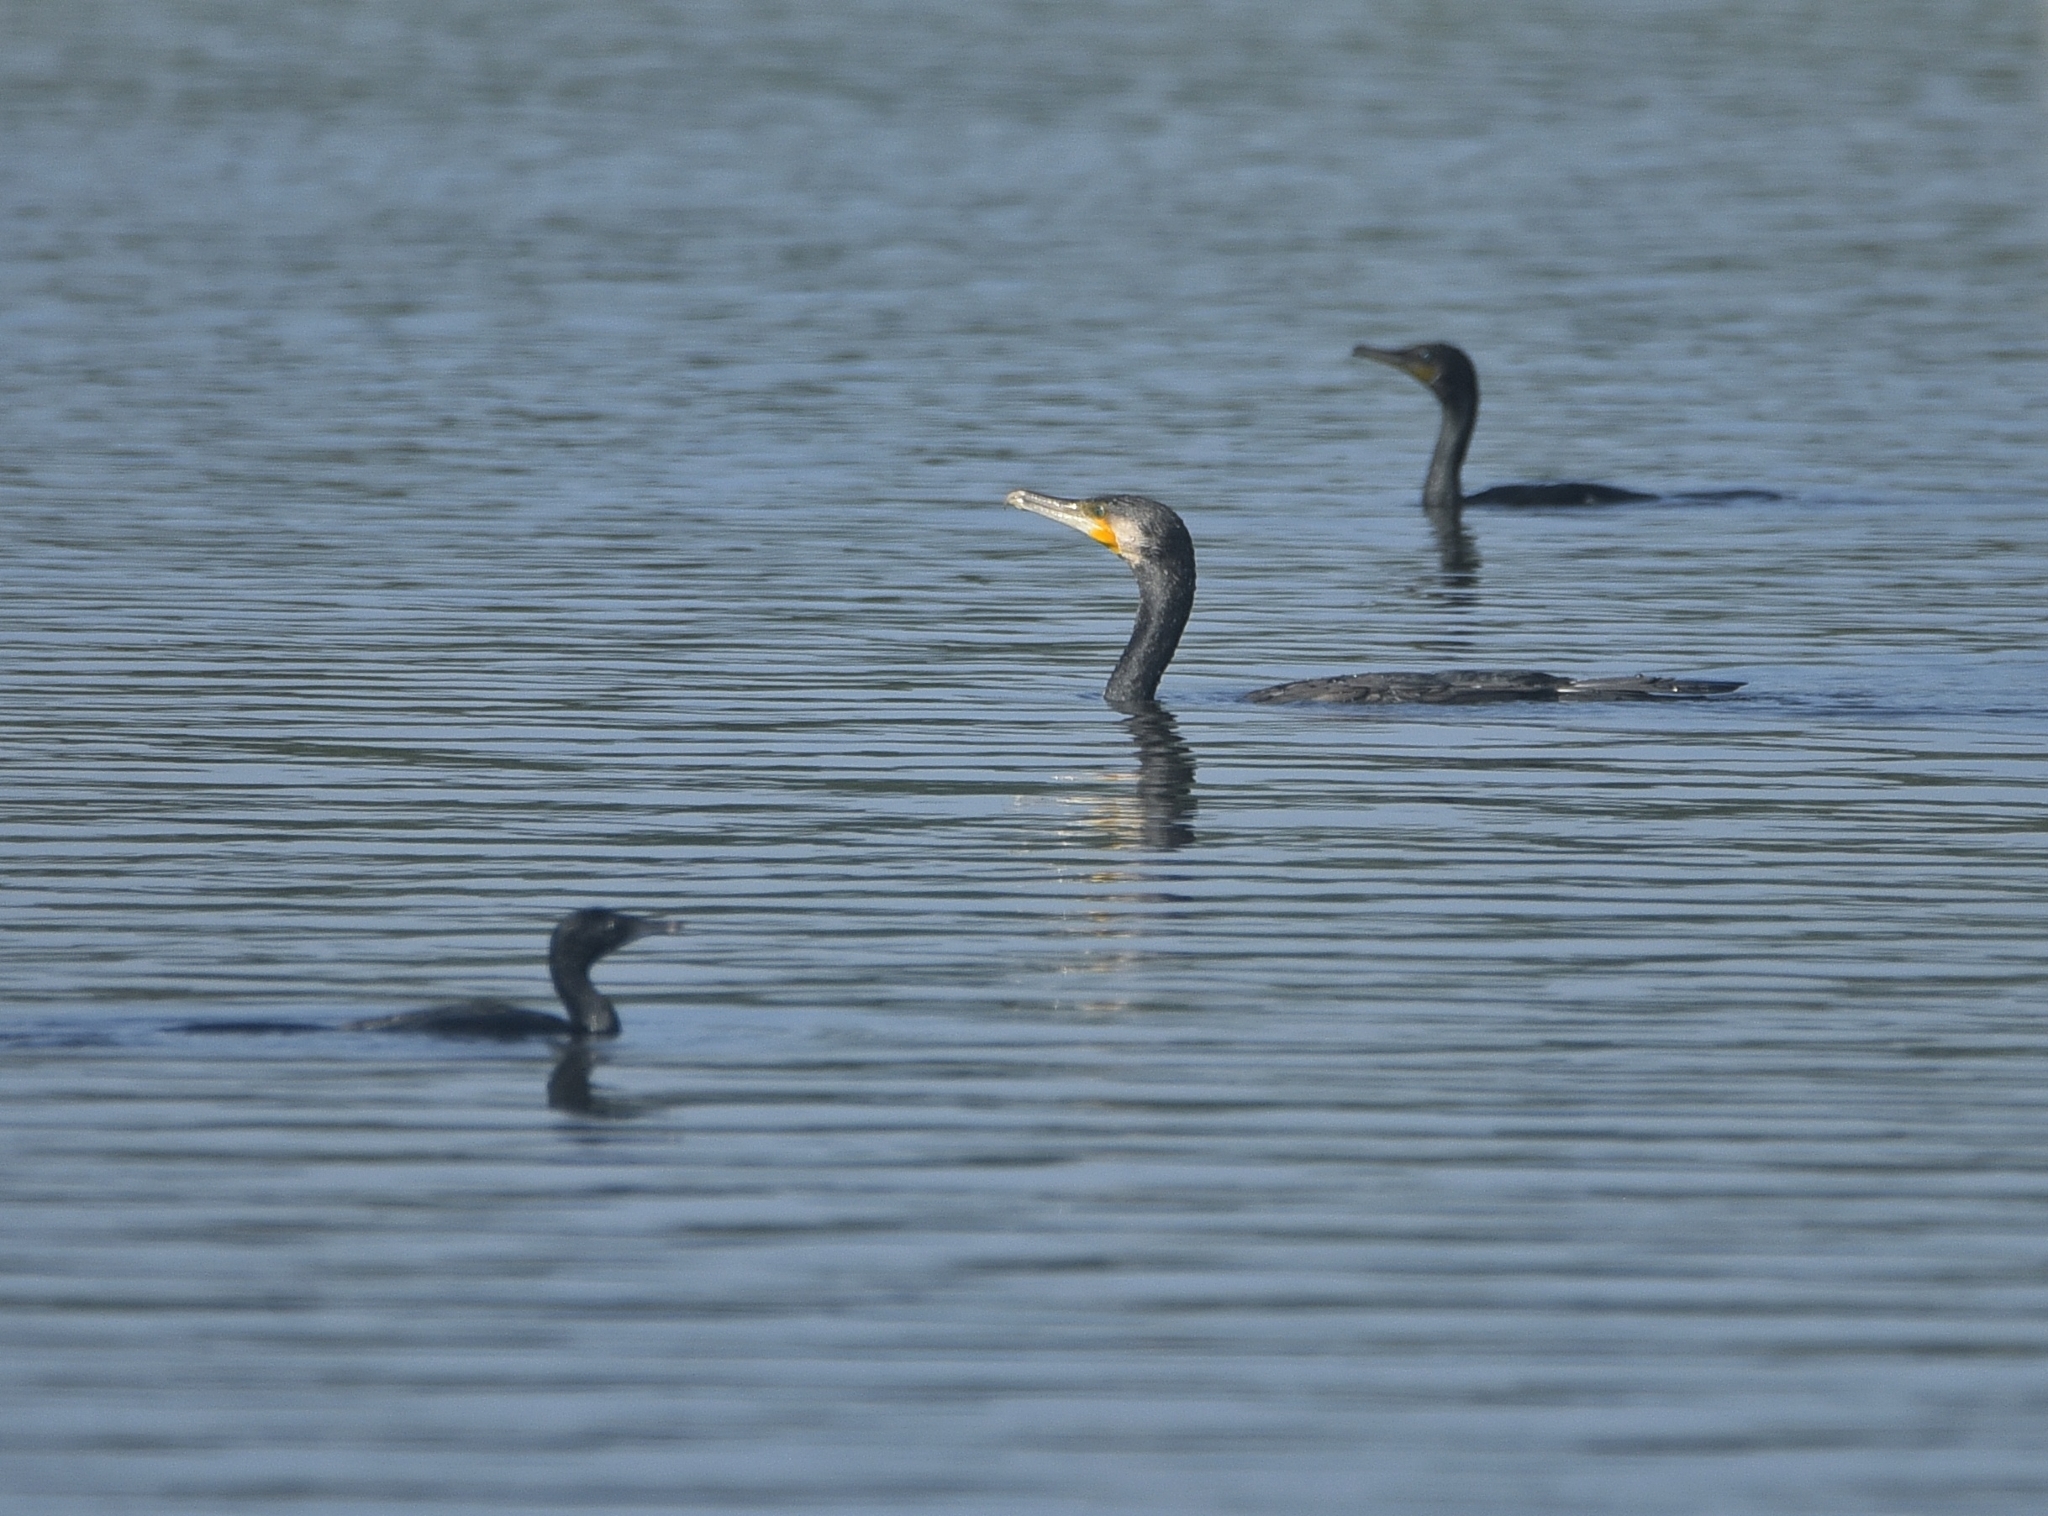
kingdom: Animalia
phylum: Chordata
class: Aves
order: Suliformes
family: Phalacrocoracidae
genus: Microcarbo
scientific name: Microcarbo niger
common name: Little cormorant
